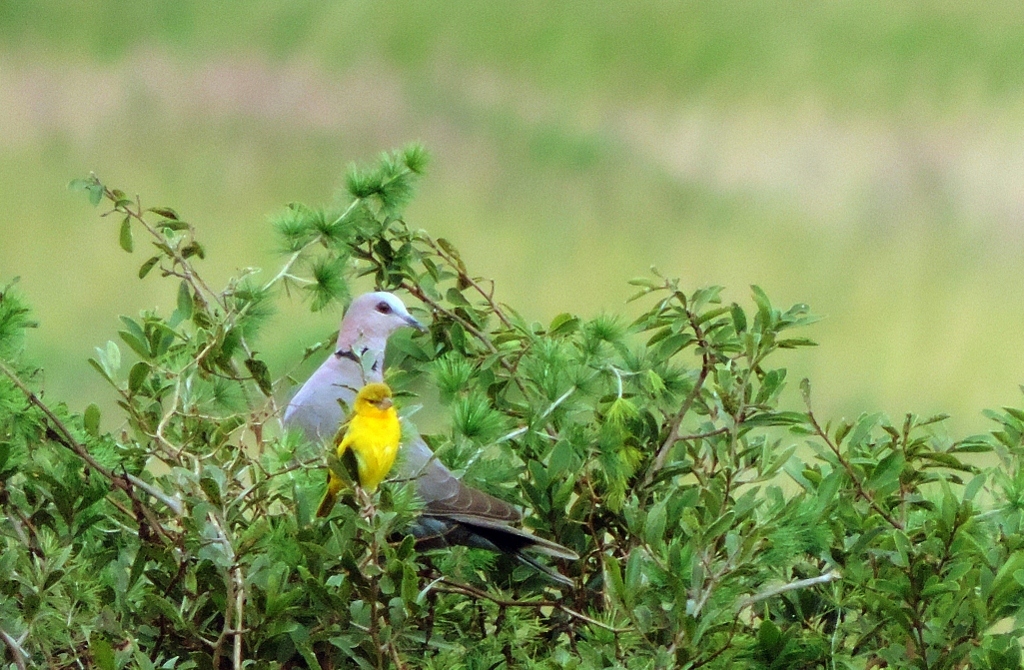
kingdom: Animalia
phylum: Chordata
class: Aves
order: Passeriformes
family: Ploceidae
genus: Ploceus
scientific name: Ploceus velatus
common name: Southern masked weaver
